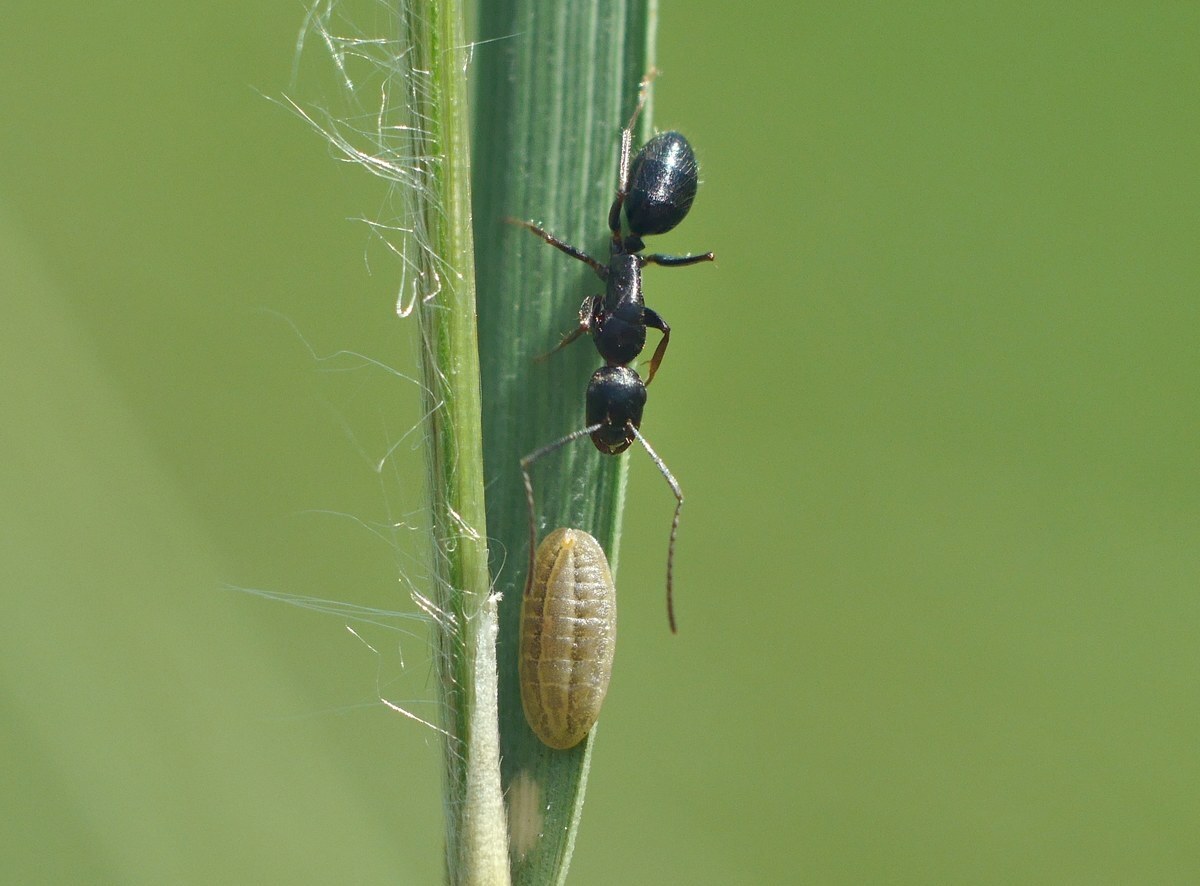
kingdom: Animalia
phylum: Arthropoda
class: Insecta
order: Hymenoptera
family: Formicidae
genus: Camponotus
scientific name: Camponotus aethiops
